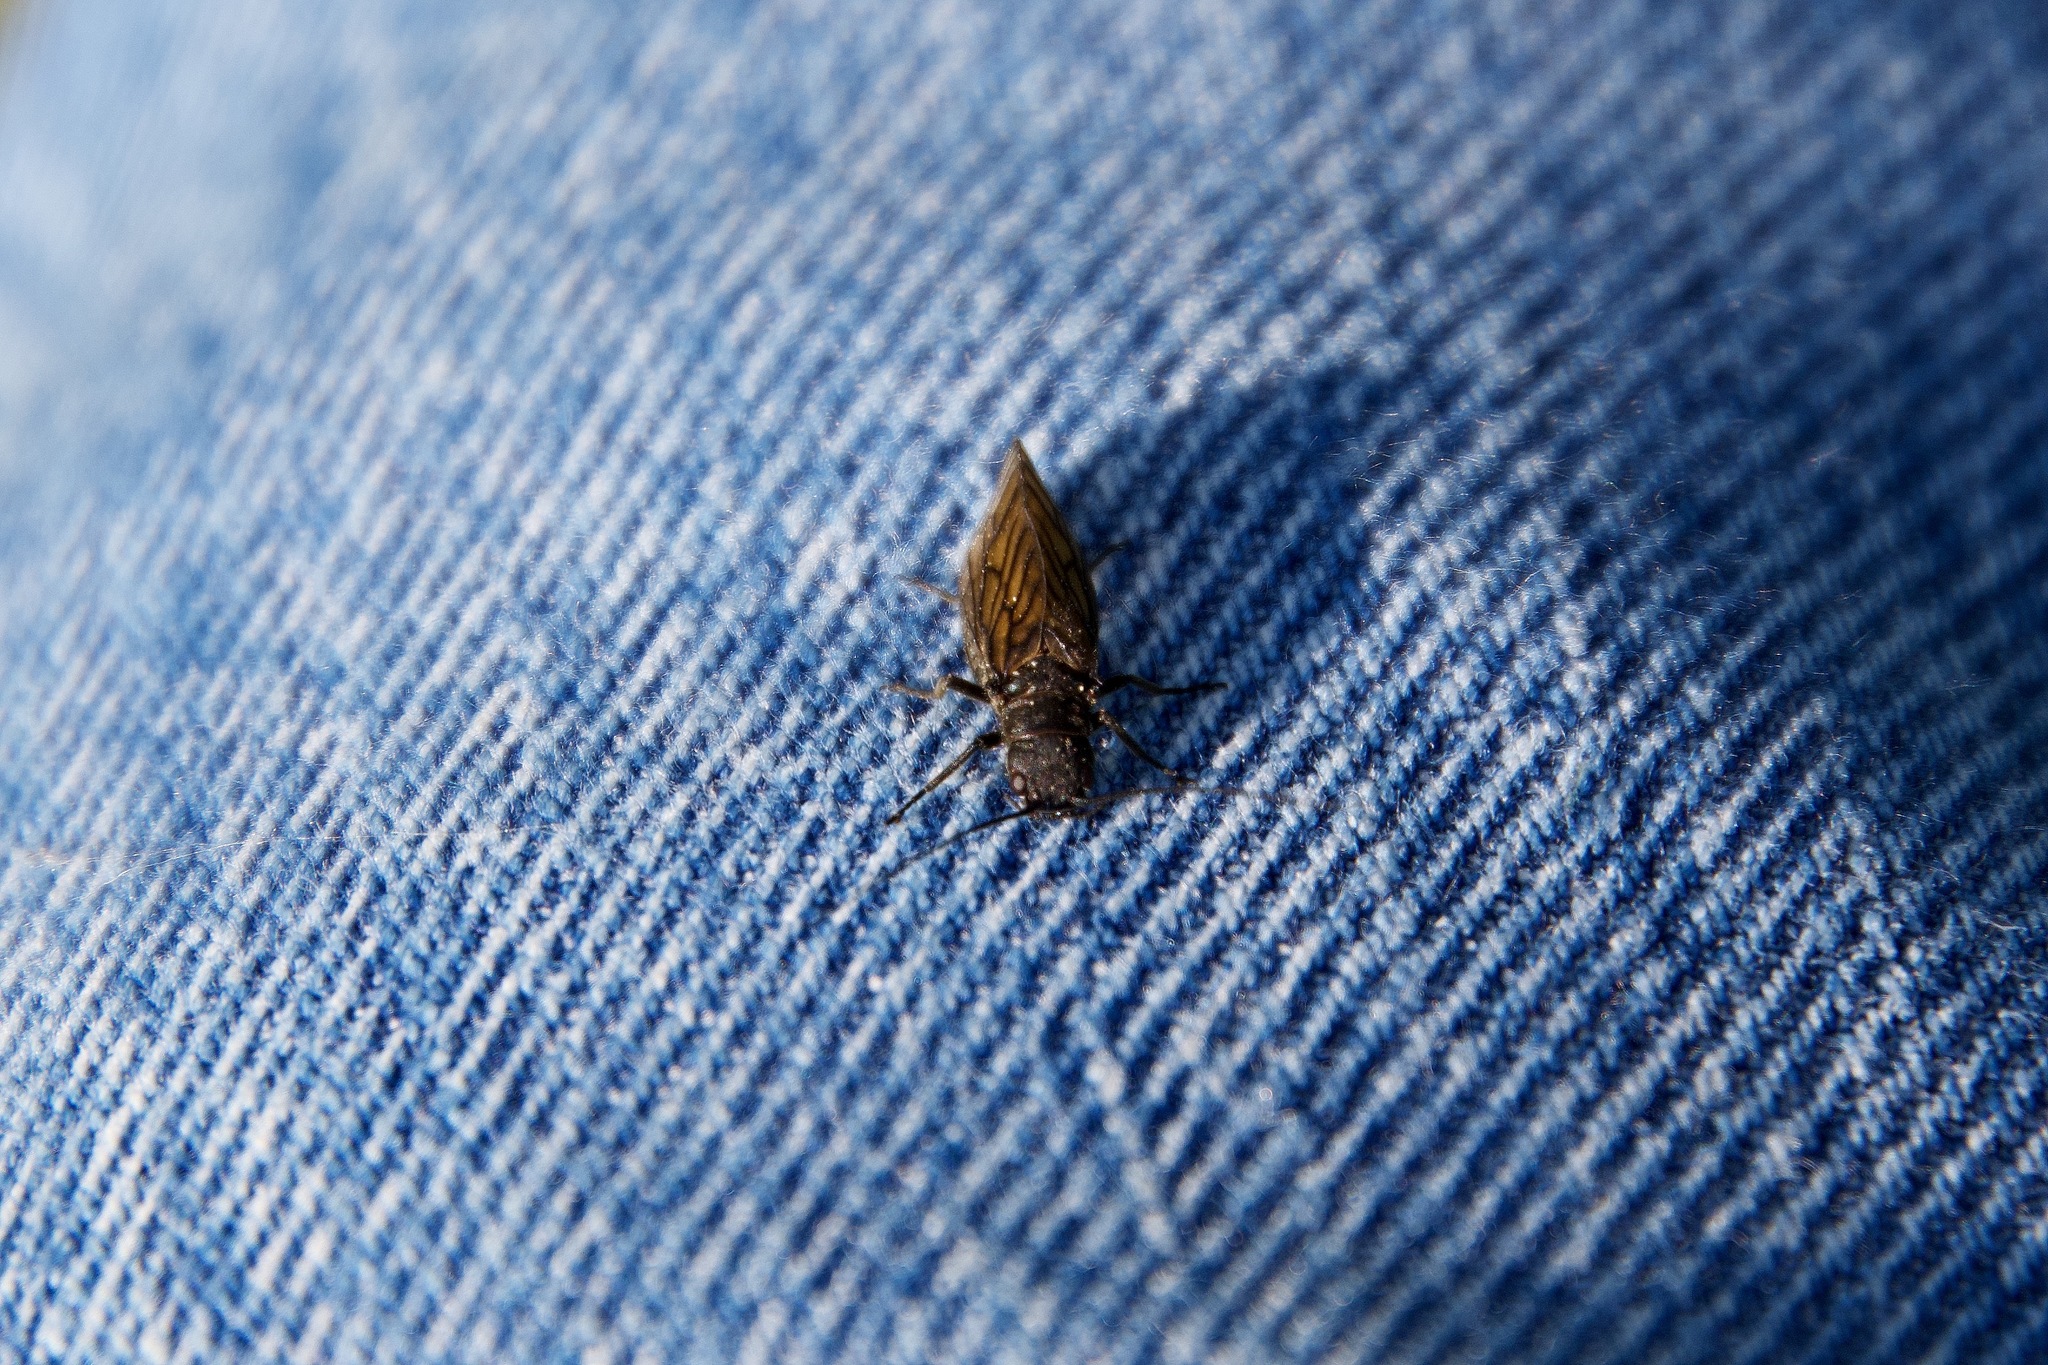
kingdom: Animalia
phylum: Arthropoda
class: Insecta
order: Megaloptera
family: Sialidae
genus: Sialis
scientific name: Sialis
